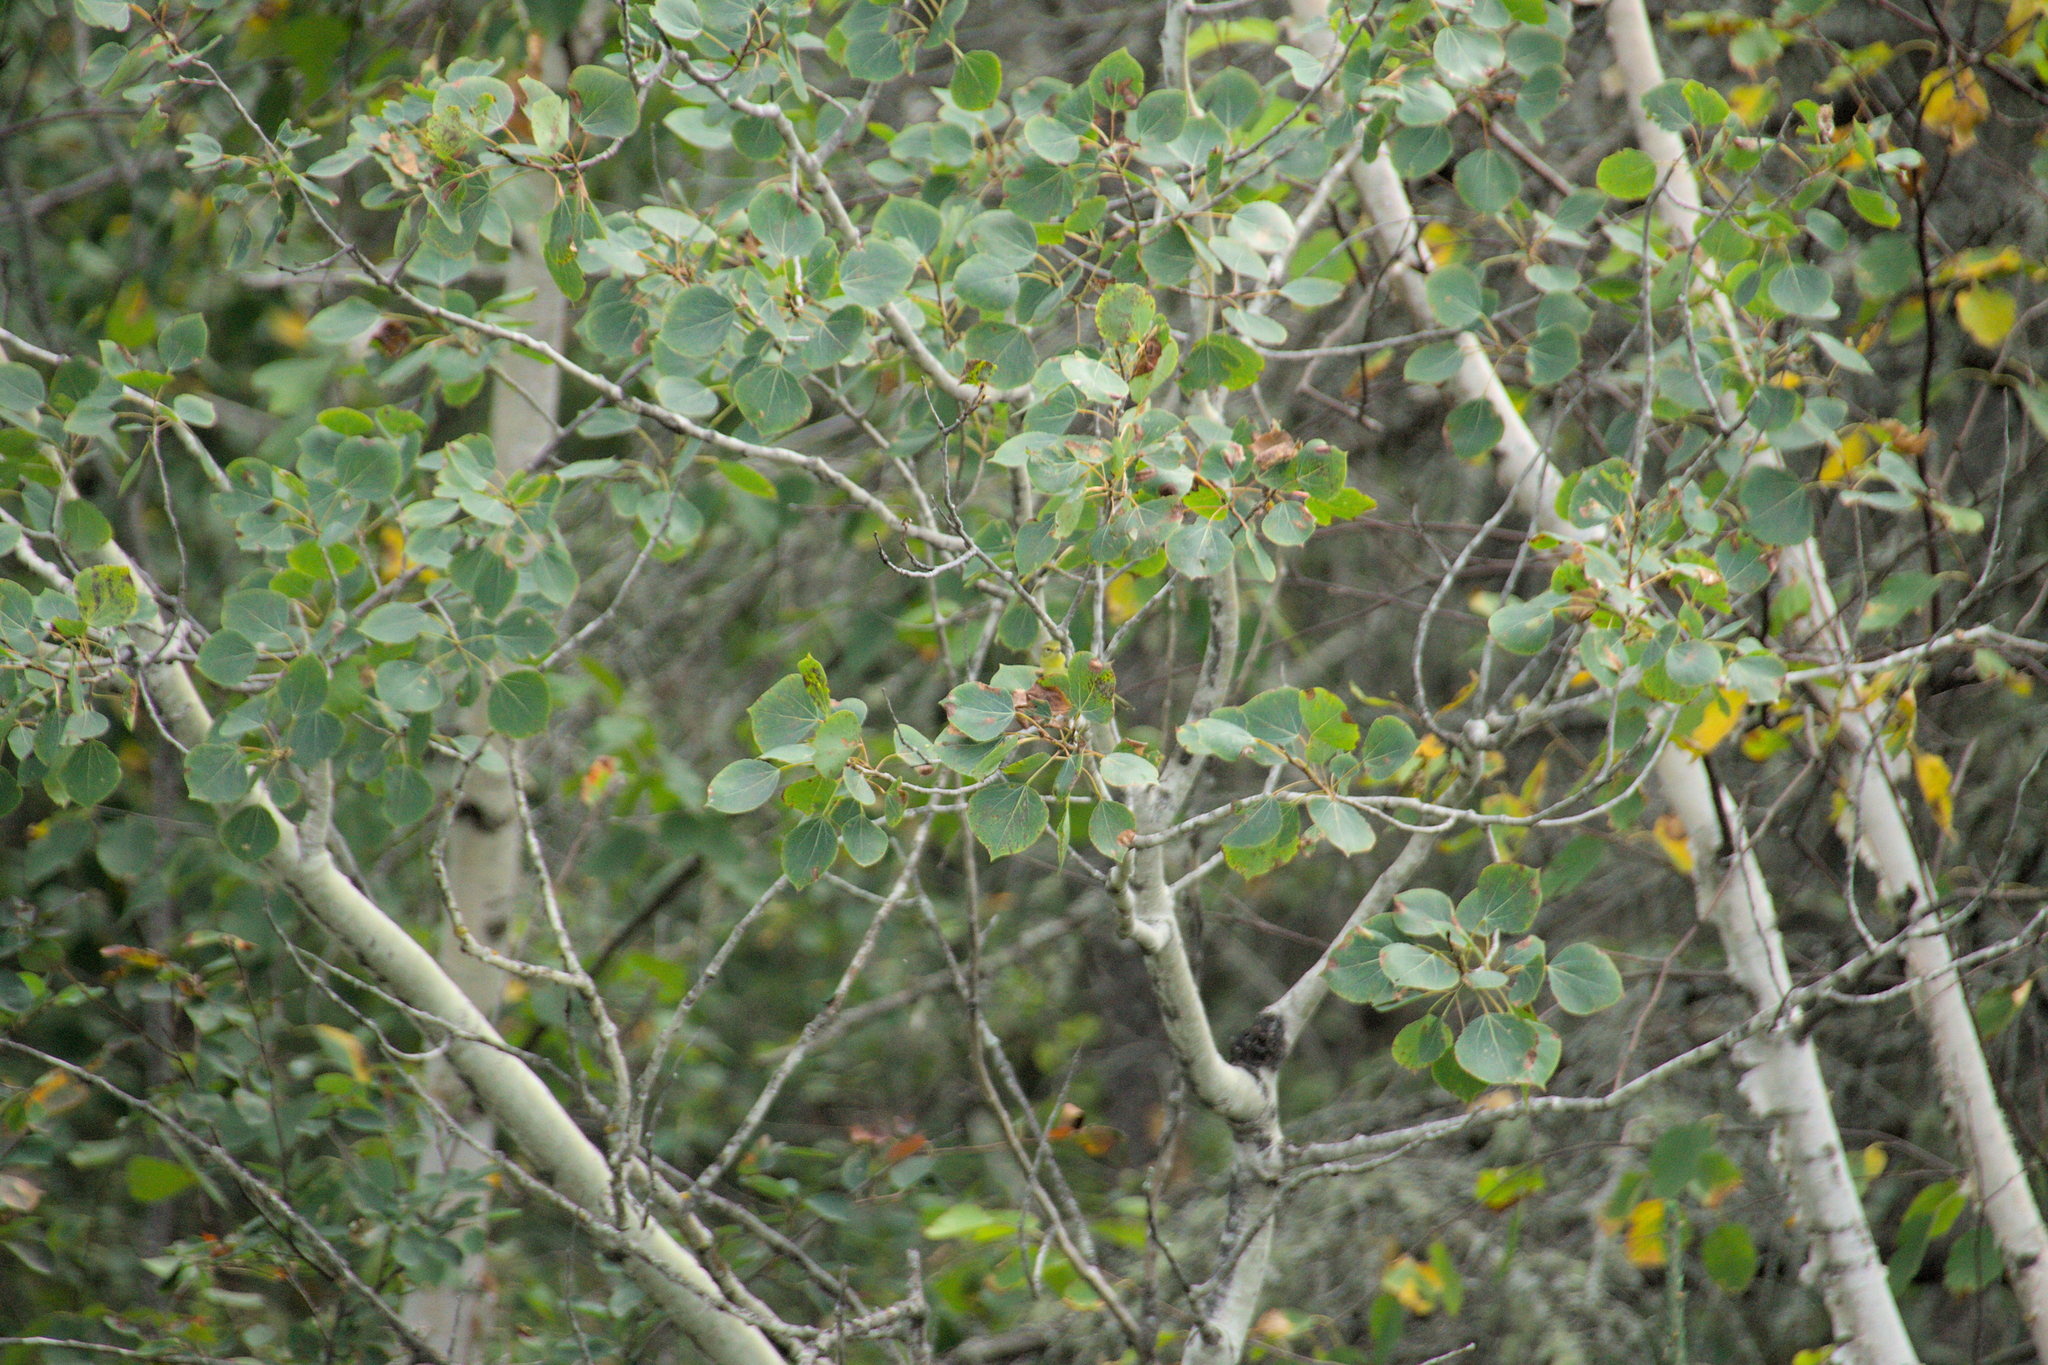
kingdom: Plantae
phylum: Tracheophyta
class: Magnoliopsida
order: Malpighiales
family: Salicaceae
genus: Populus
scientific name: Populus tremuloides
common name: Quaking aspen
